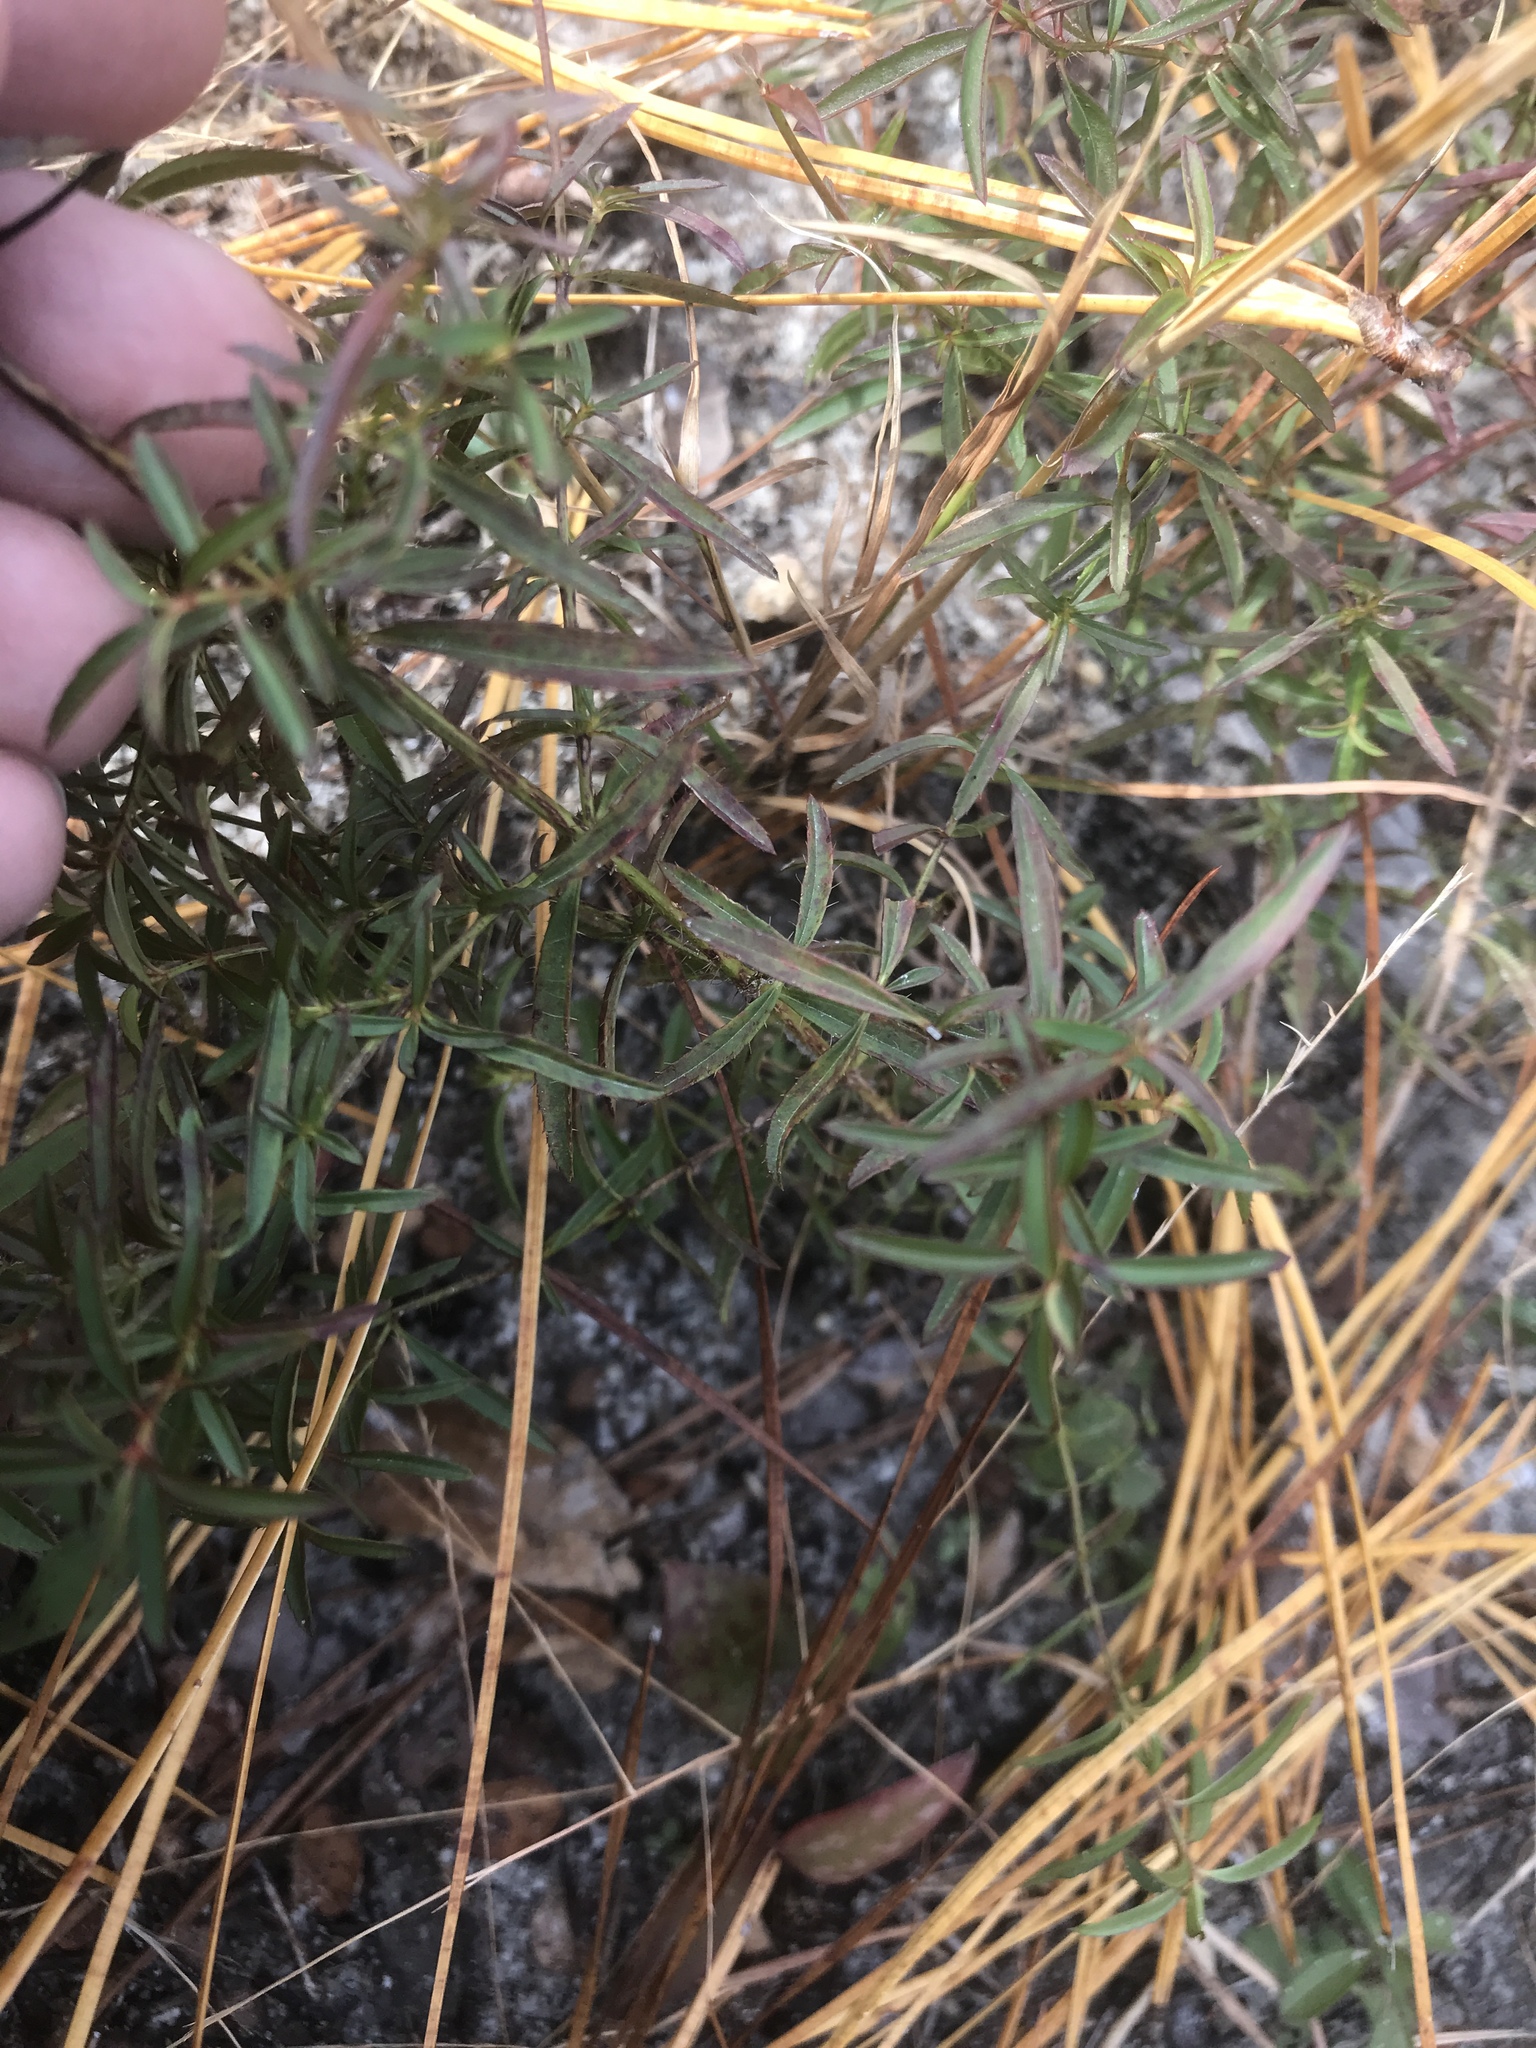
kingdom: Plantae
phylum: Tracheophyta
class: Magnoliopsida
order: Myrtales
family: Melastomataceae
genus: Rhexia
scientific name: Rhexia mariana
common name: Dull meadow-pitcher
